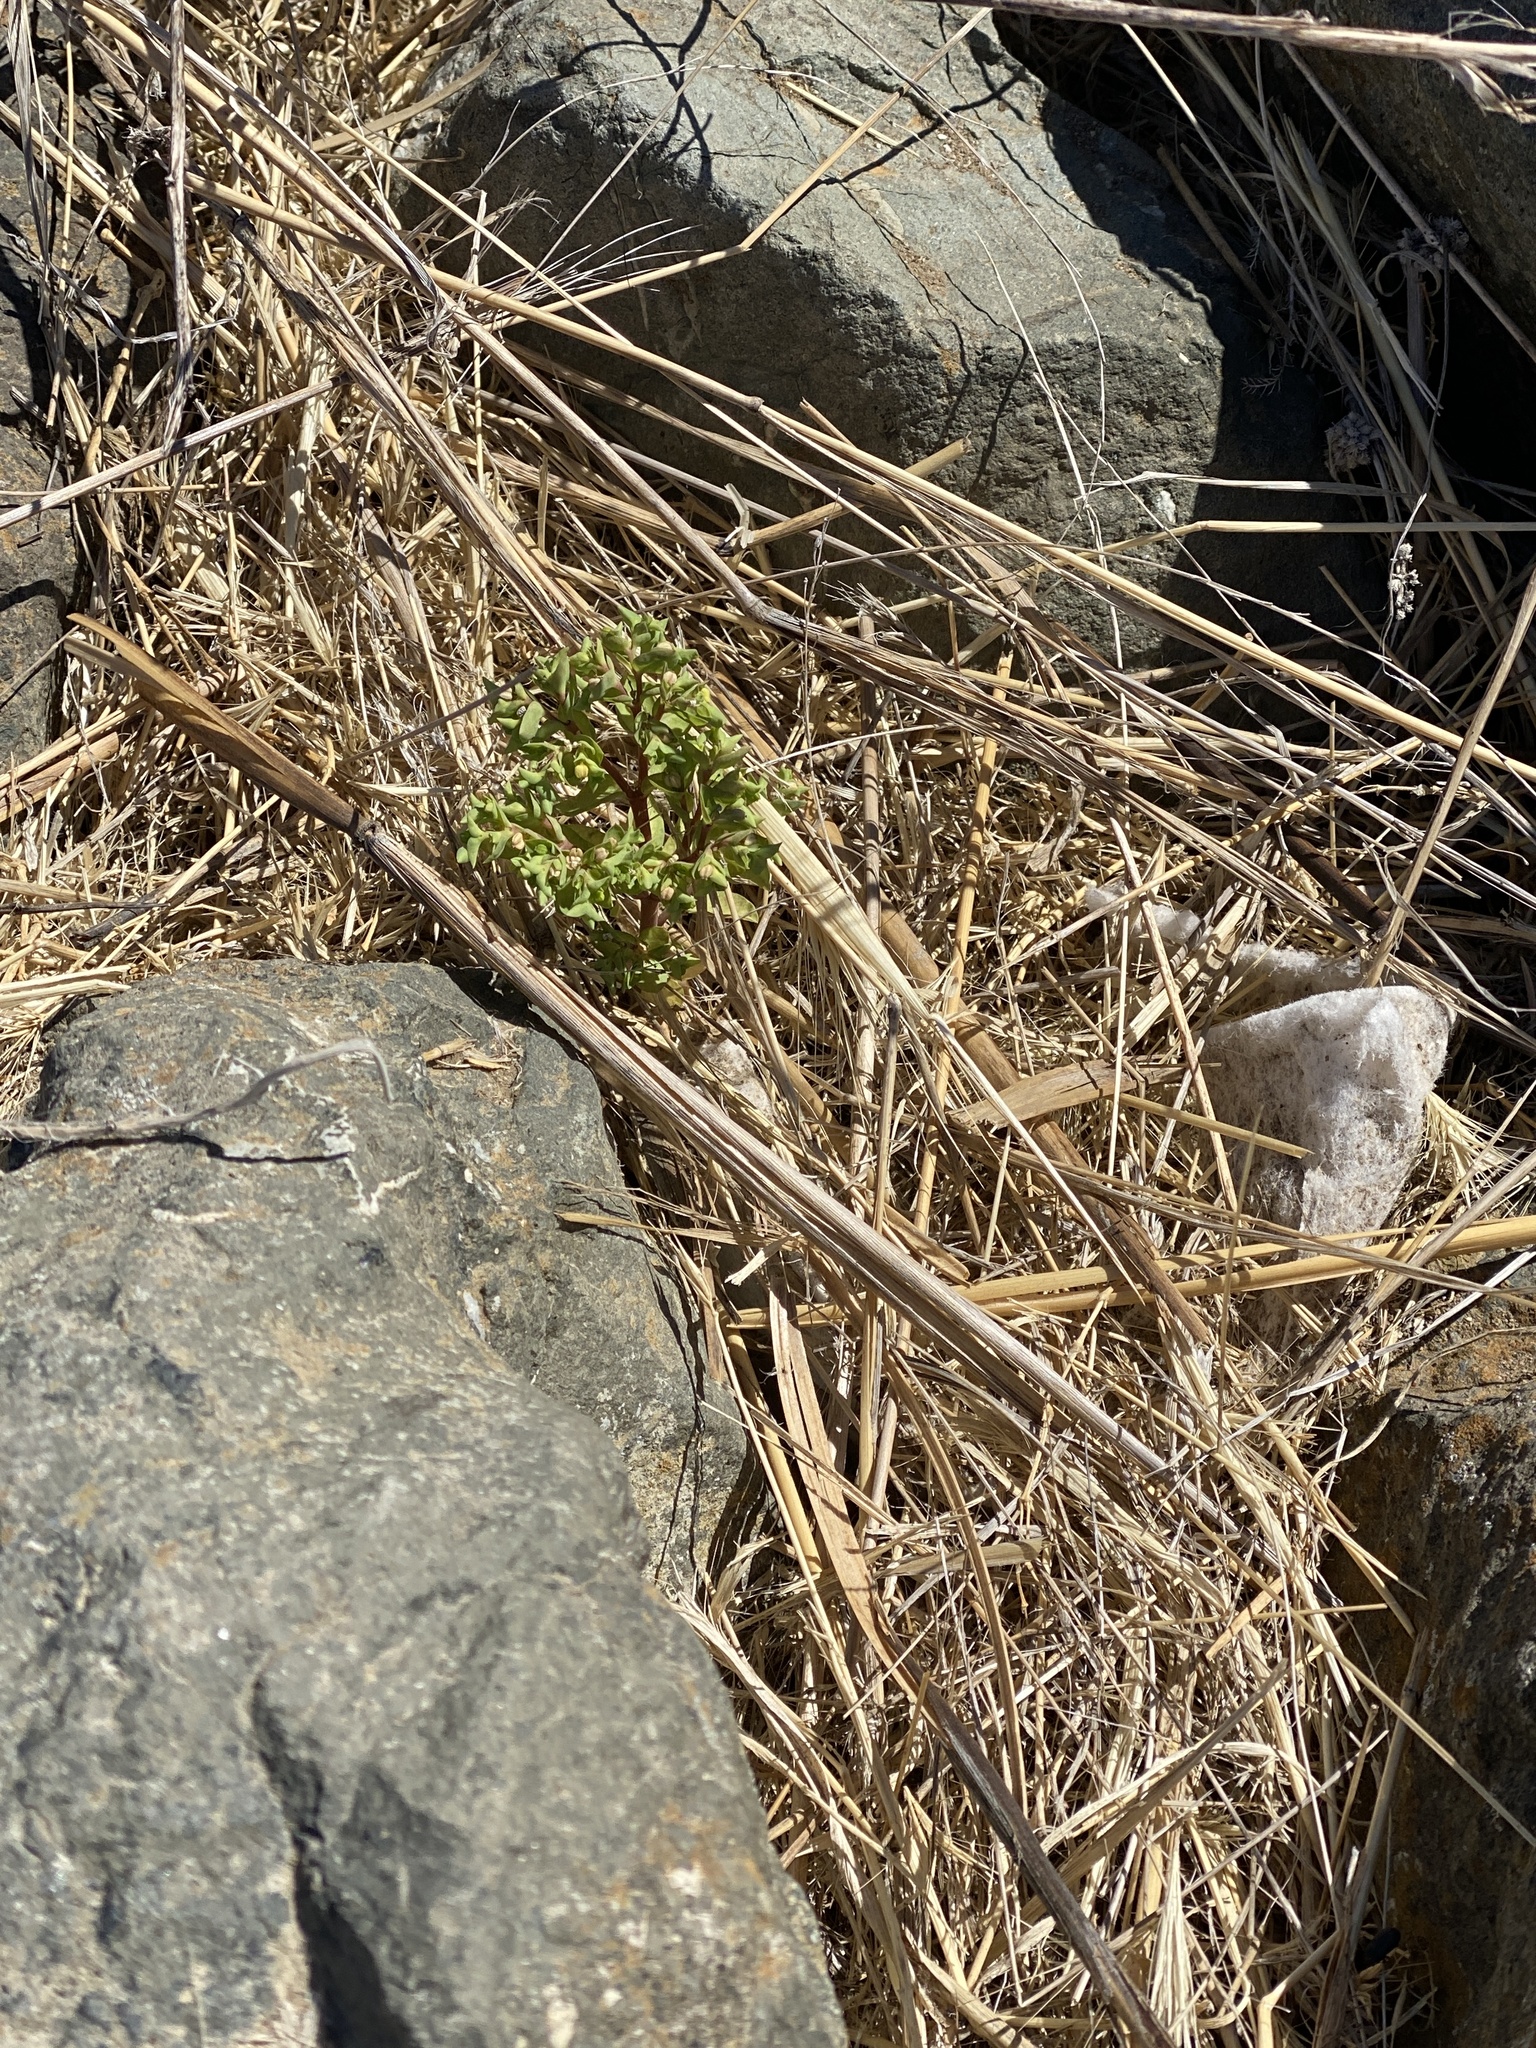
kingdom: Plantae
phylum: Tracheophyta
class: Magnoliopsida
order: Malpighiales
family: Euphorbiaceae
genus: Euphorbia
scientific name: Euphorbia peplus
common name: Petty spurge
